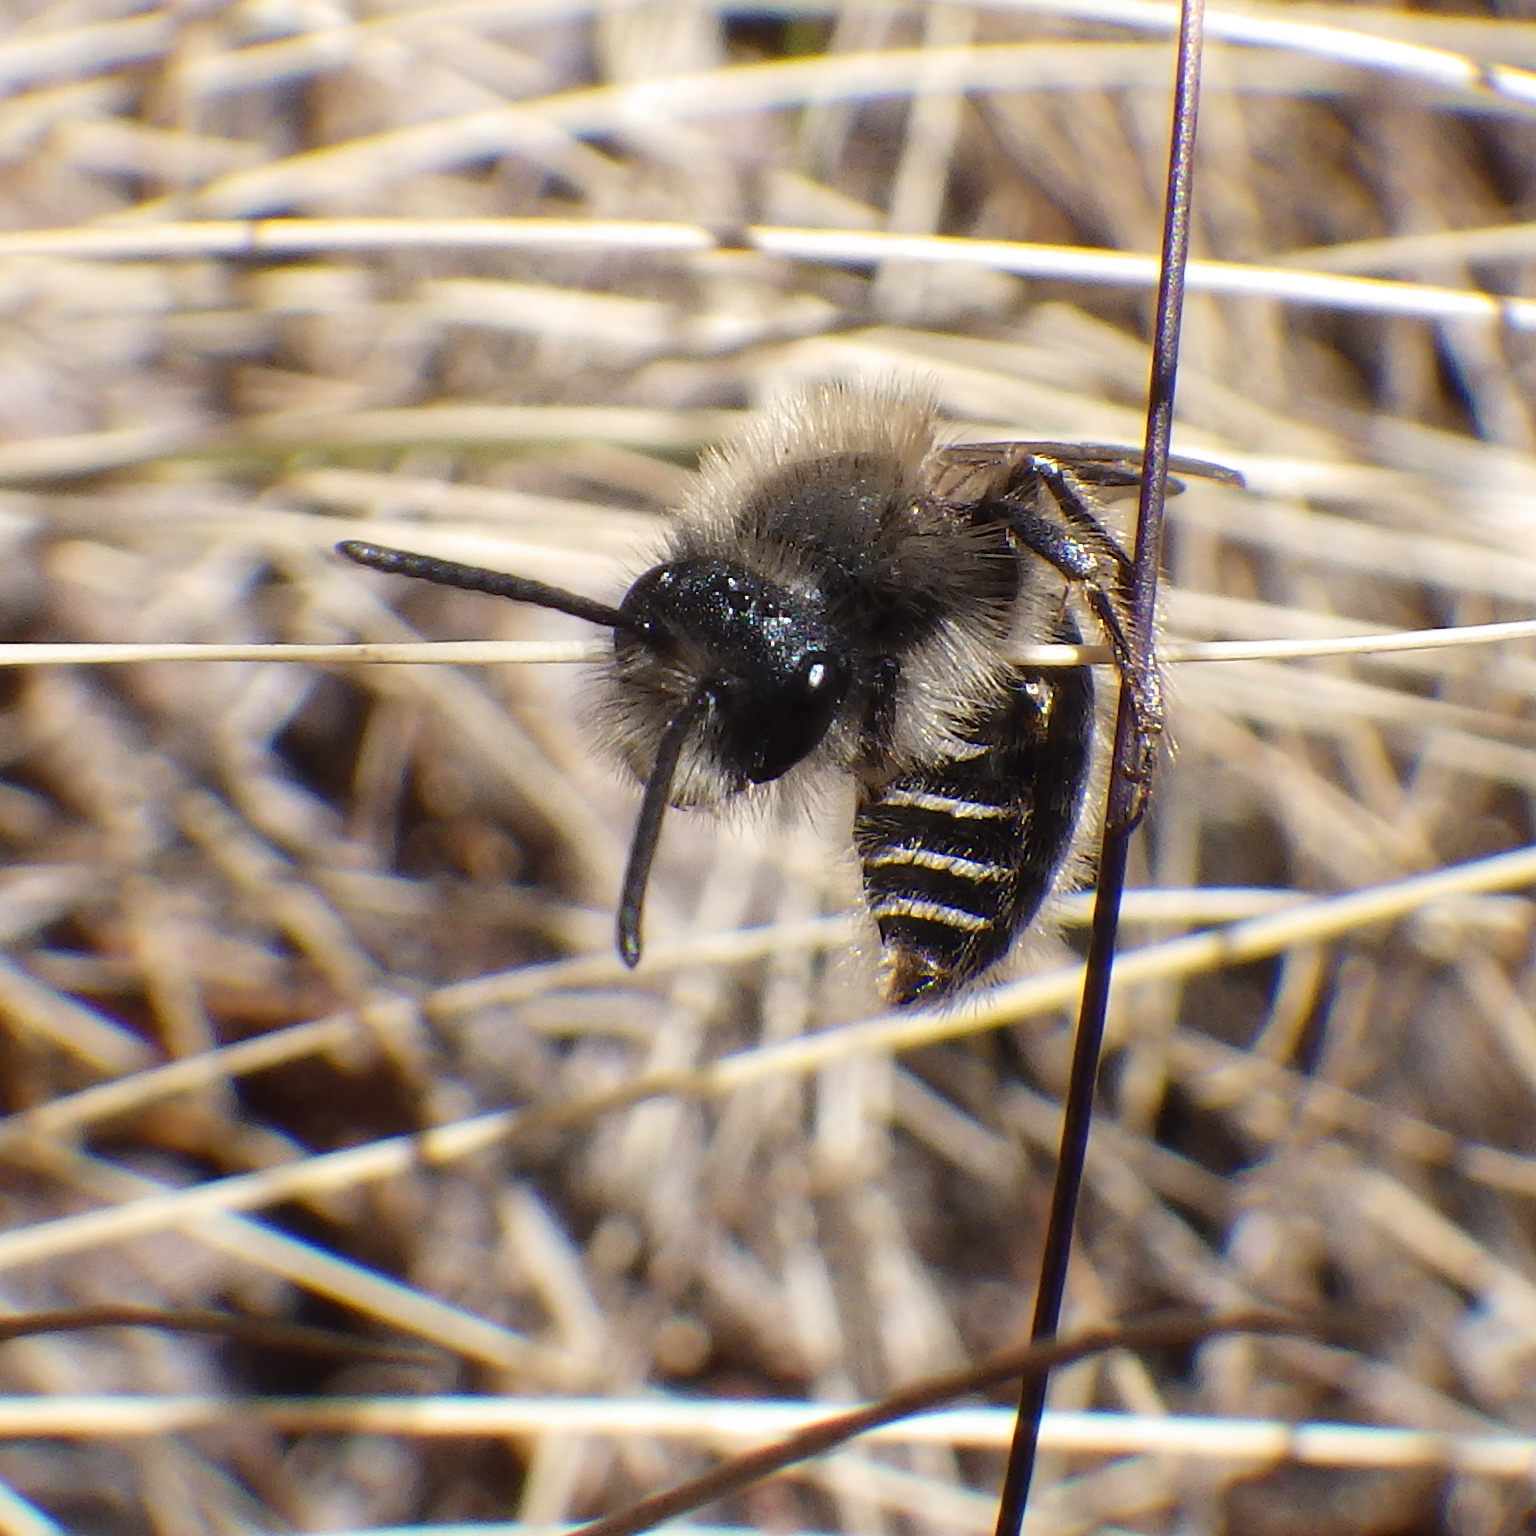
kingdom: Animalia
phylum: Arthropoda
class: Insecta
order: Hymenoptera
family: Andrenidae
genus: Andrena
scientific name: Andrena frigida
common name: Frigid mining bee
